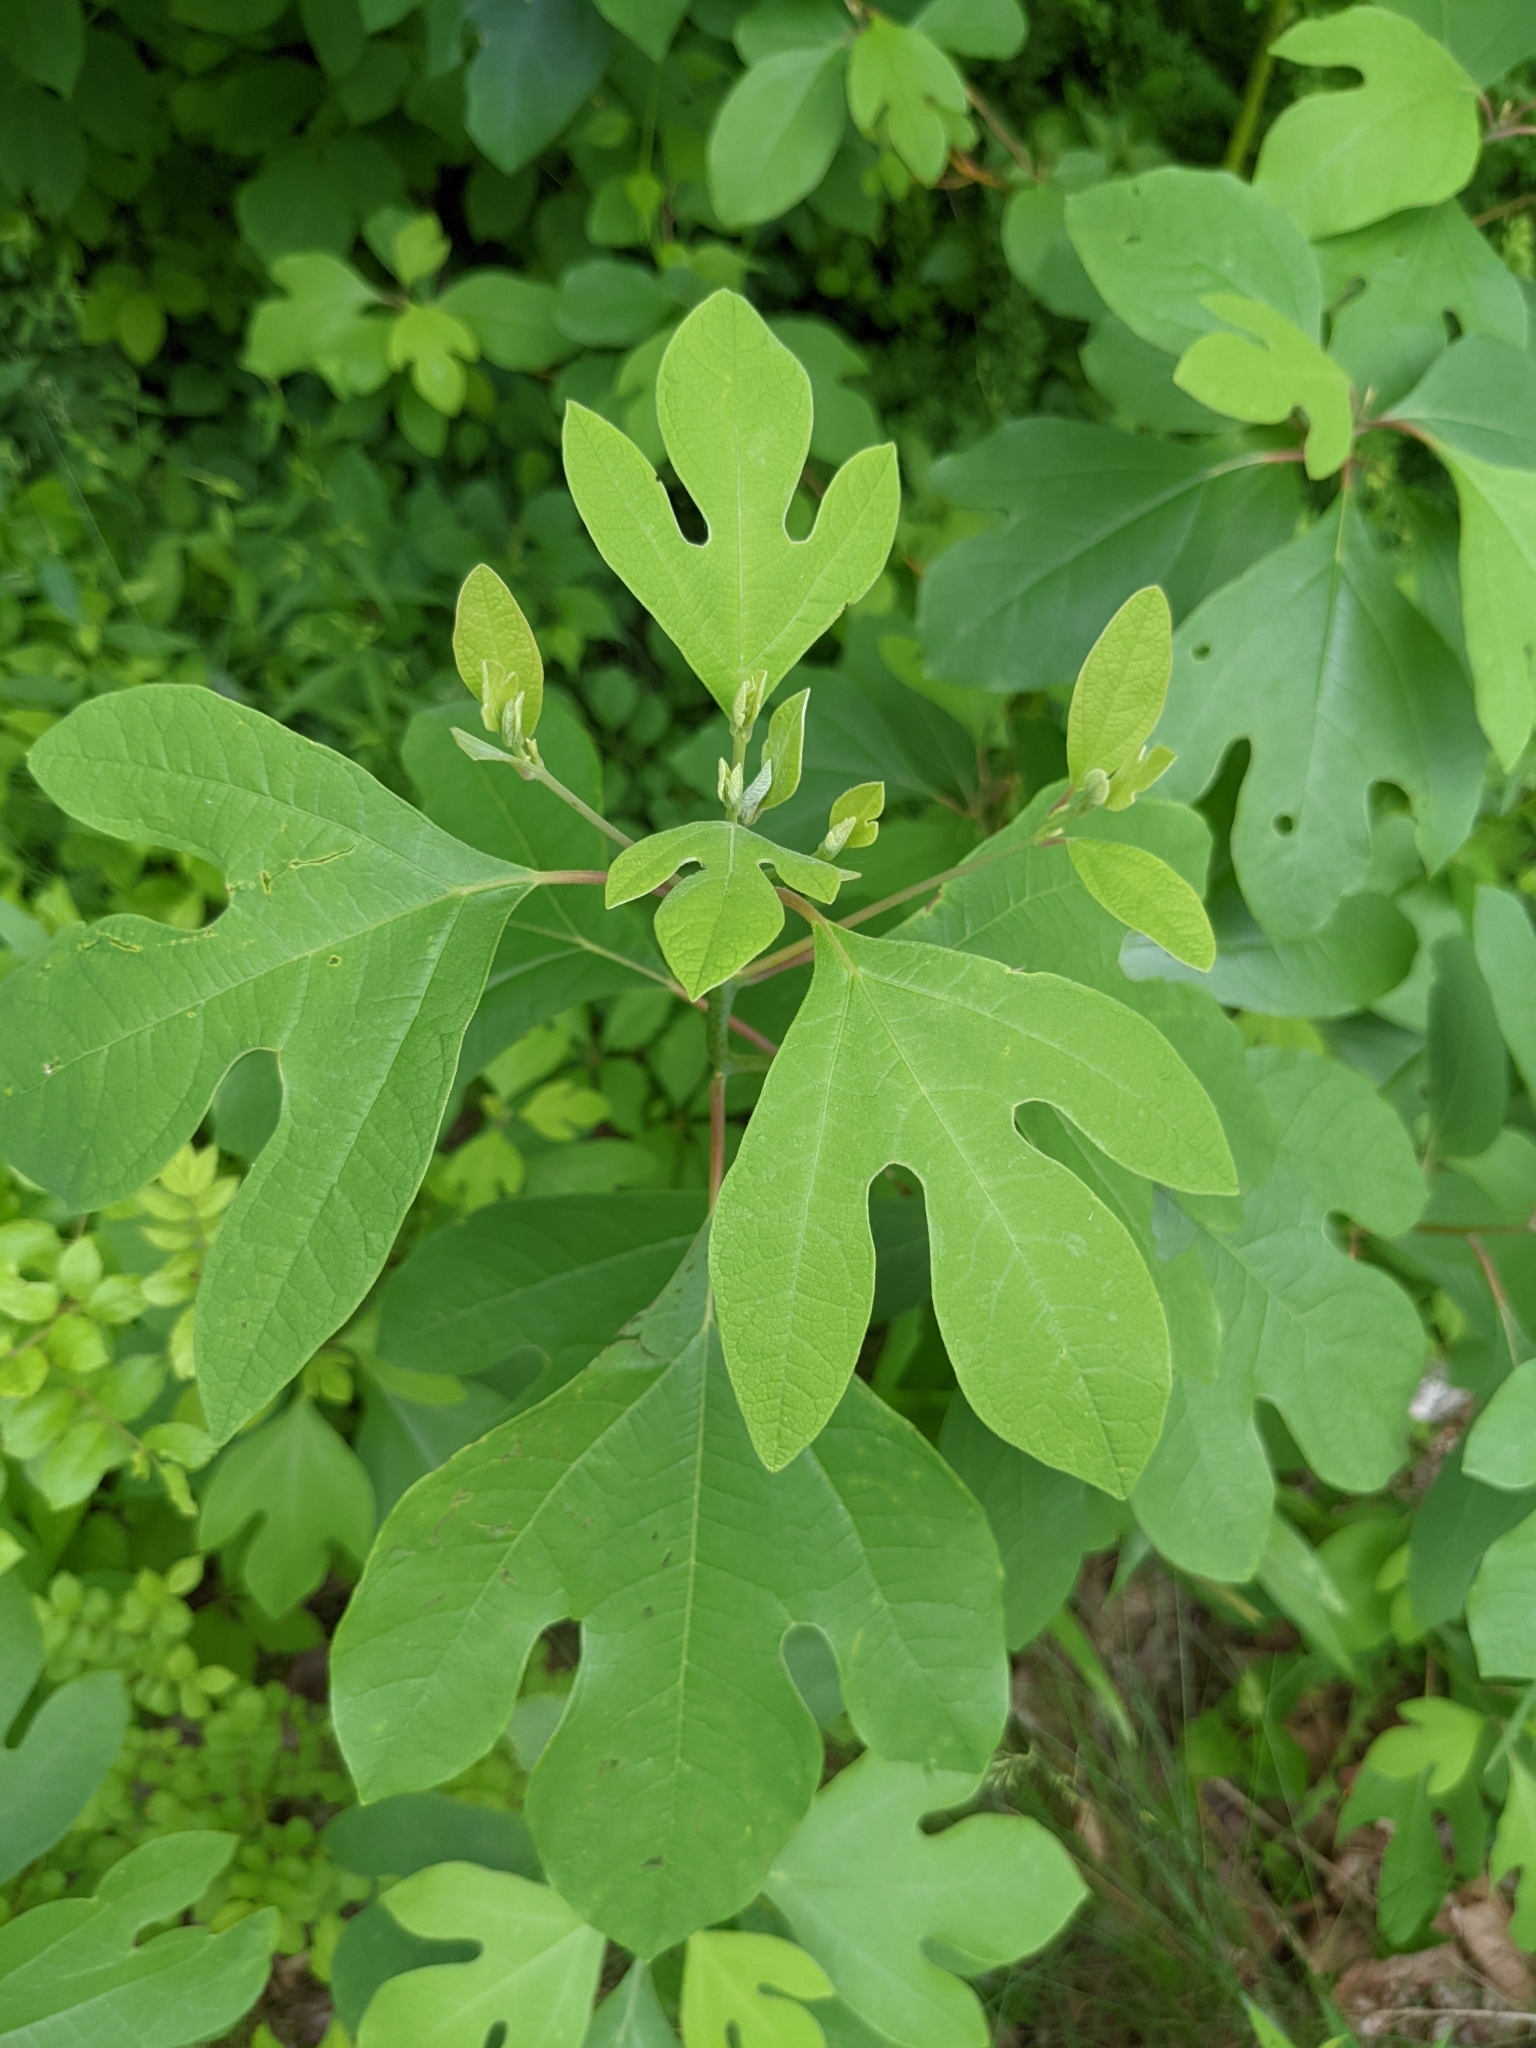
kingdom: Plantae
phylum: Tracheophyta
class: Magnoliopsida
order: Laurales
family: Lauraceae
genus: Sassafras
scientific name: Sassafras albidum
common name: Sassafras
